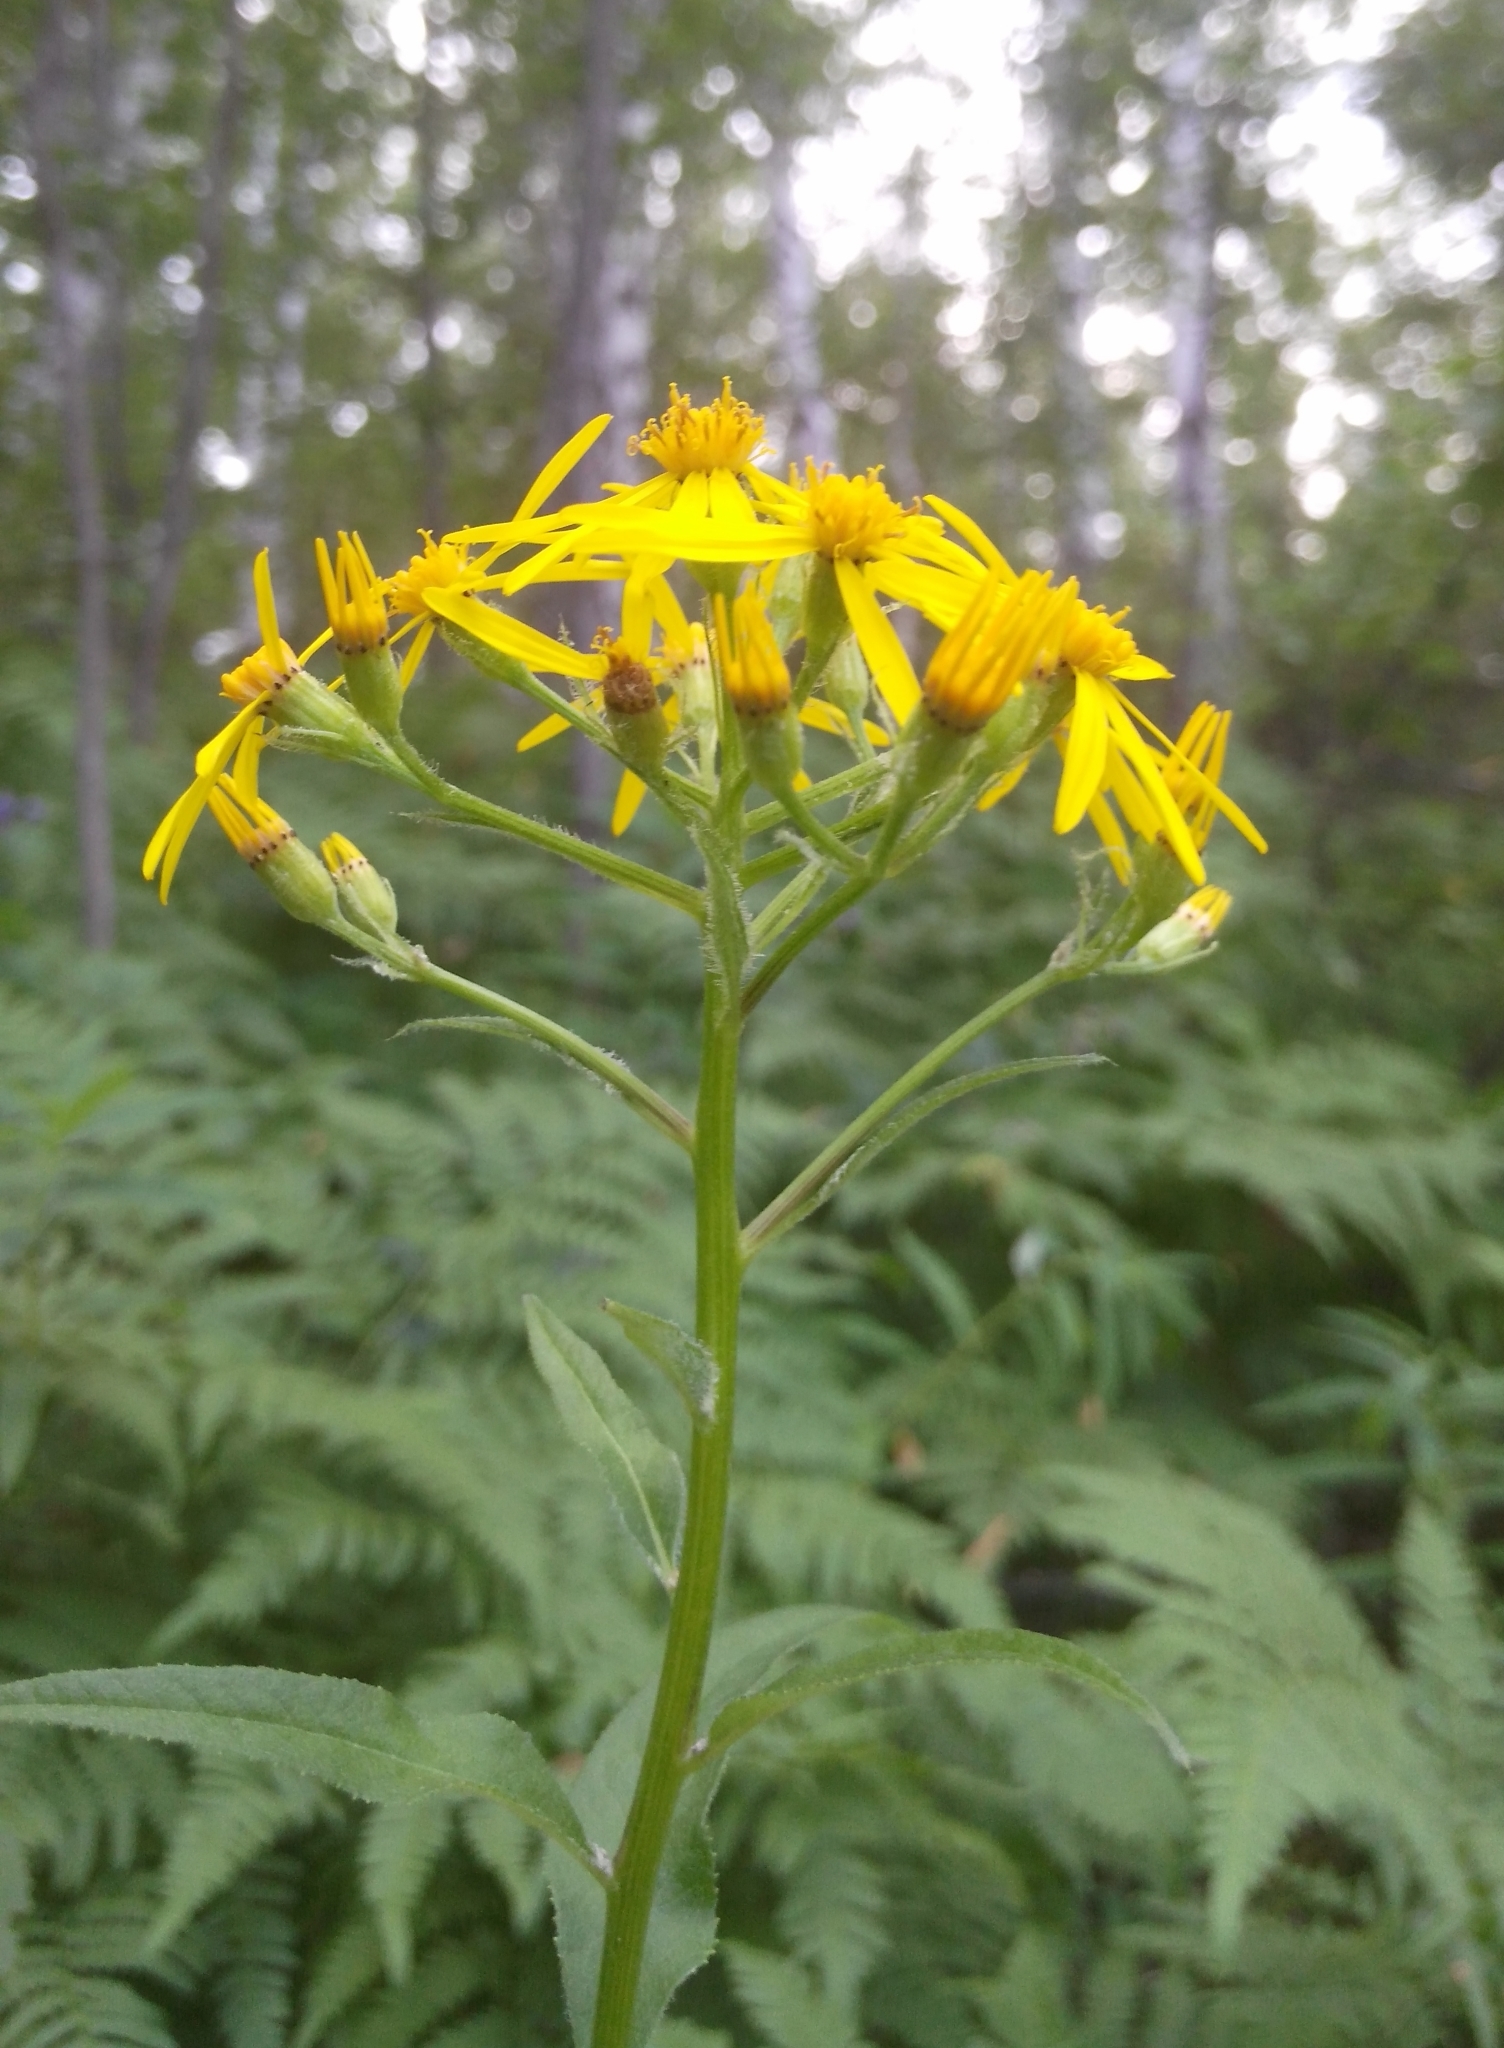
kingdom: Plantae
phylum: Tracheophyta
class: Magnoliopsida
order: Asterales
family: Asteraceae
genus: Senecio
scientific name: Senecio nemorensis
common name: Alpine ragwort
